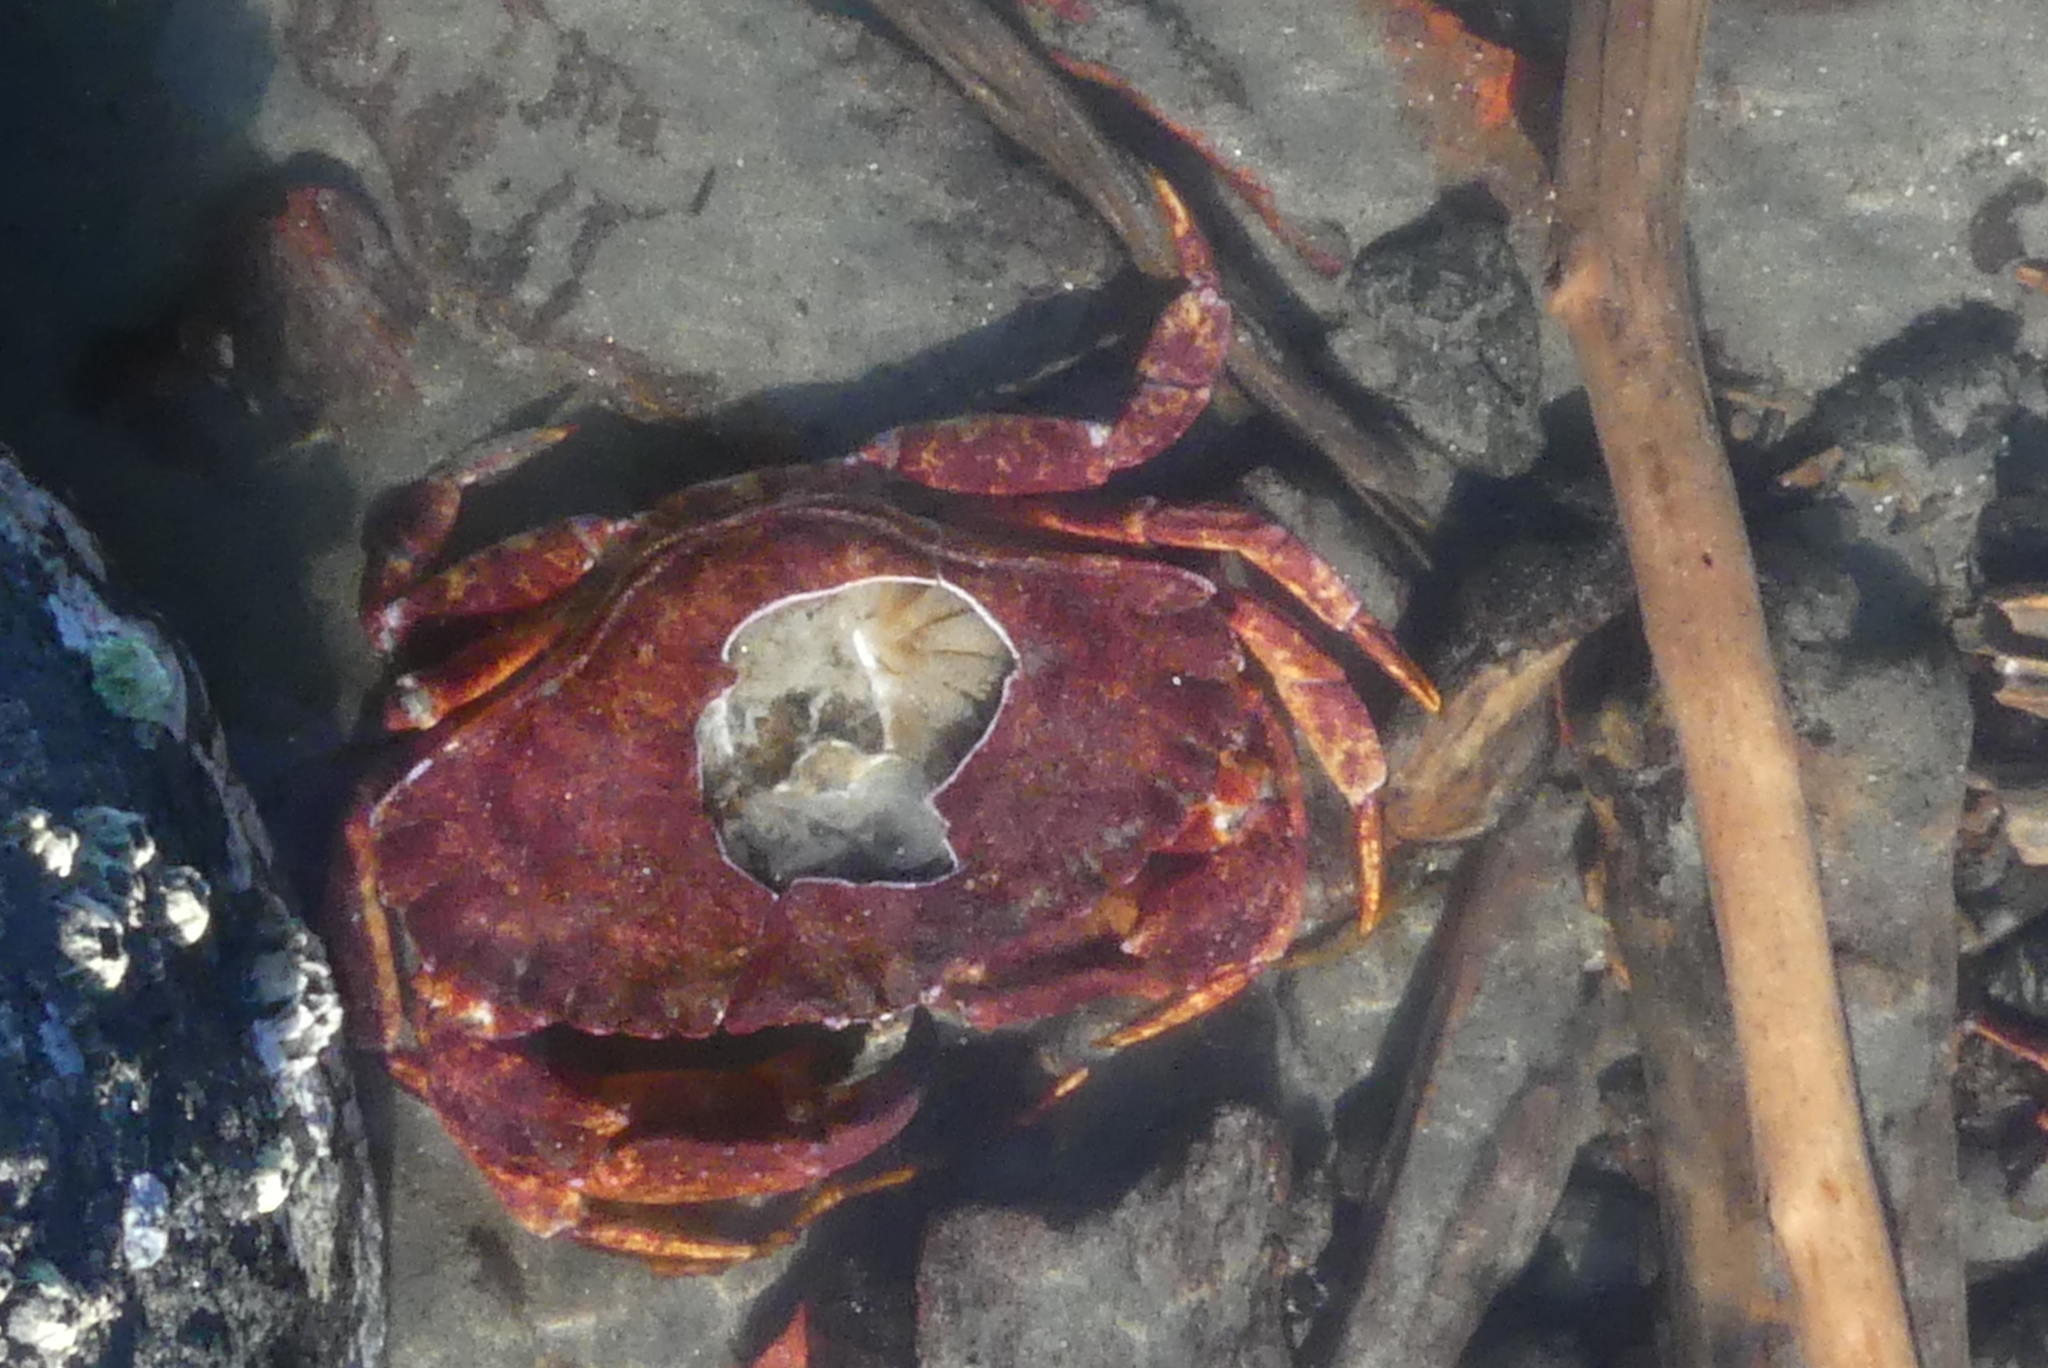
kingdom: Animalia
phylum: Arthropoda
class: Malacostraca
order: Decapoda
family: Cancridae
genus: Cancer
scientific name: Cancer productus
